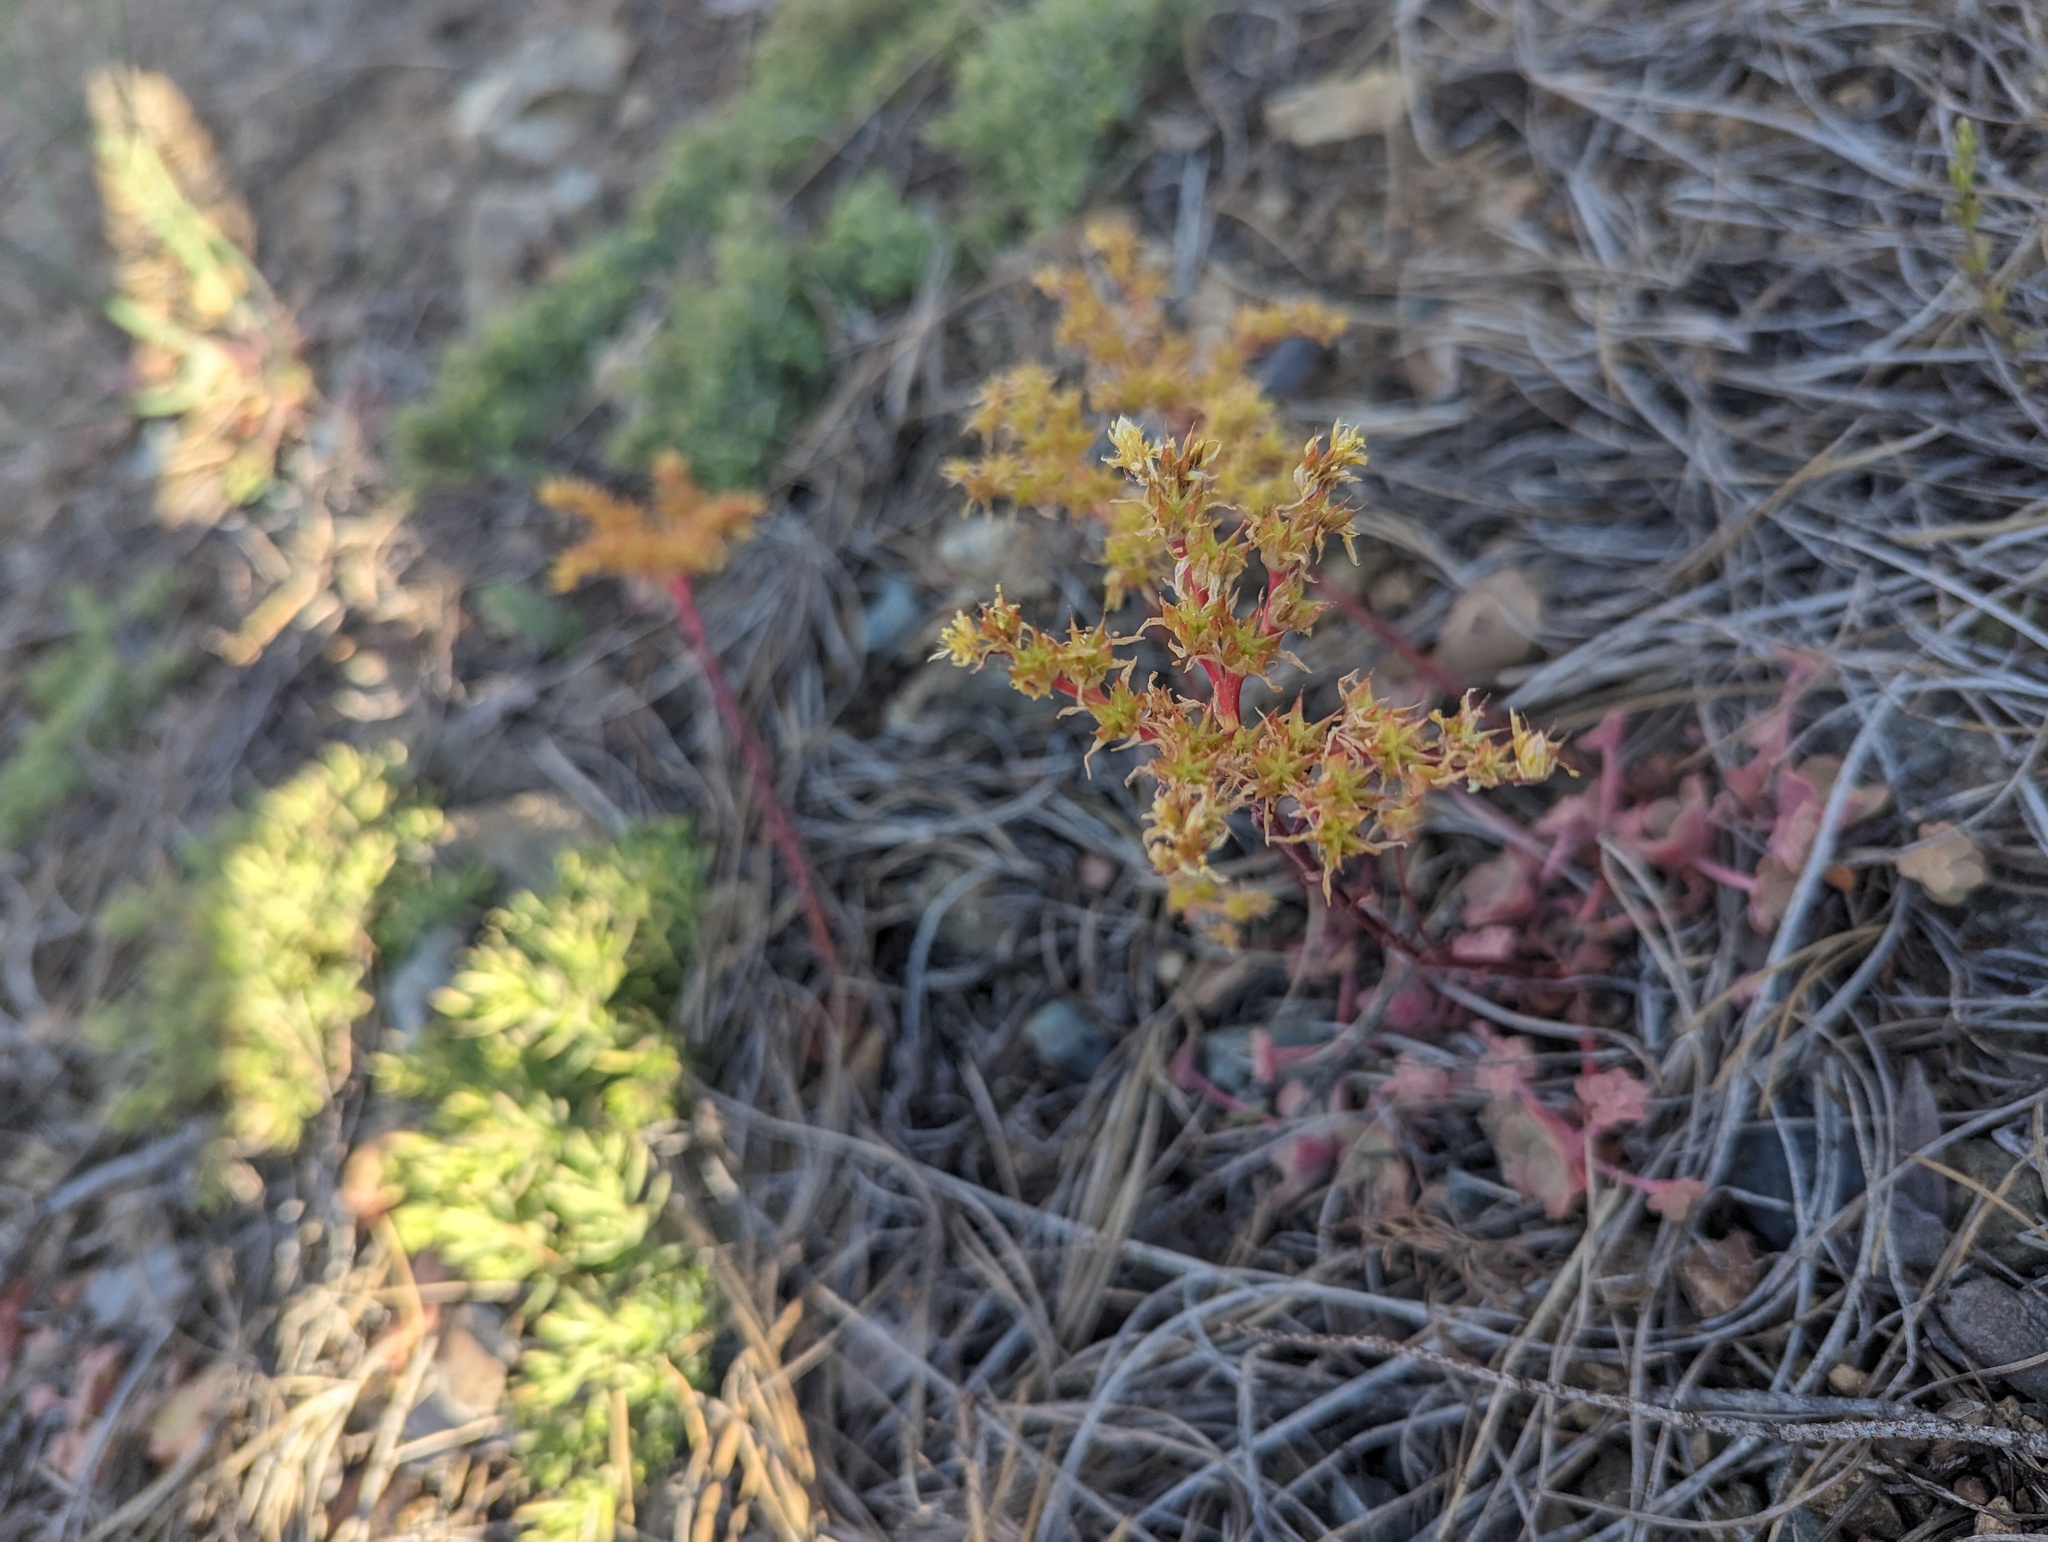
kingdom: Plantae
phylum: Tracheophyta
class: Magnoliopsida
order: Saxifragales
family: Crassulaceae
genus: Sedum
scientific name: Sedum spathulifolium
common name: Colorado stonecrop
